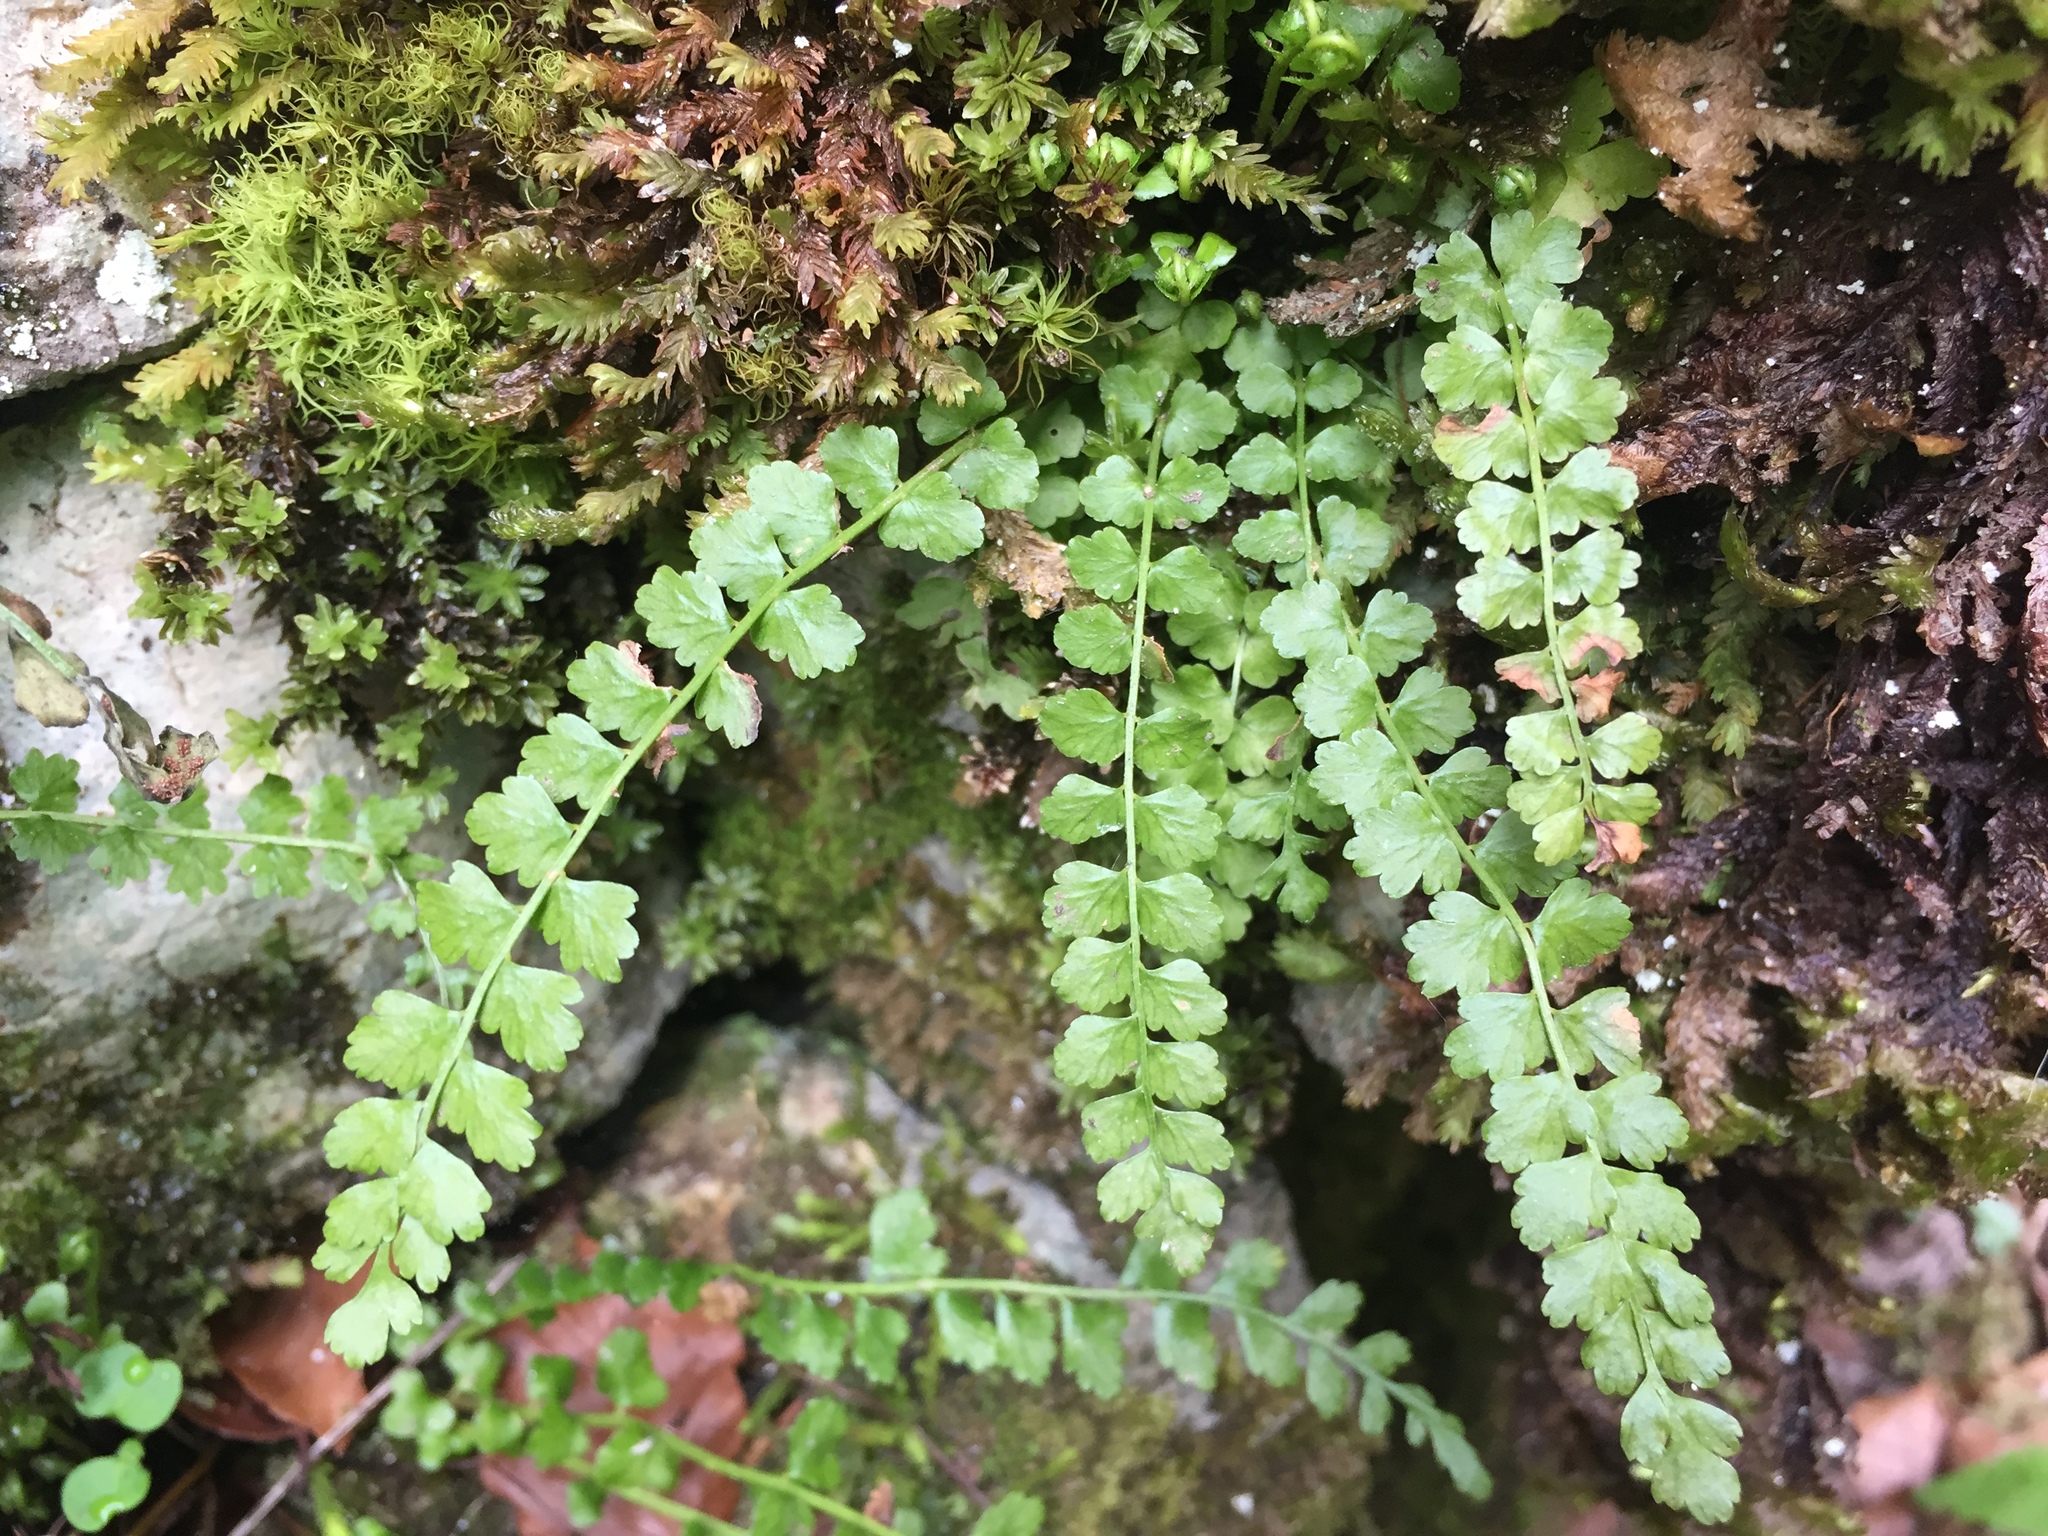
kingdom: Plantae
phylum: Tracheophyta
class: Polypodiopsida
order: Polypodiales
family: Aspleniaceae
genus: Asplenium
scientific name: Asplenium viride
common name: Green spleenwort
